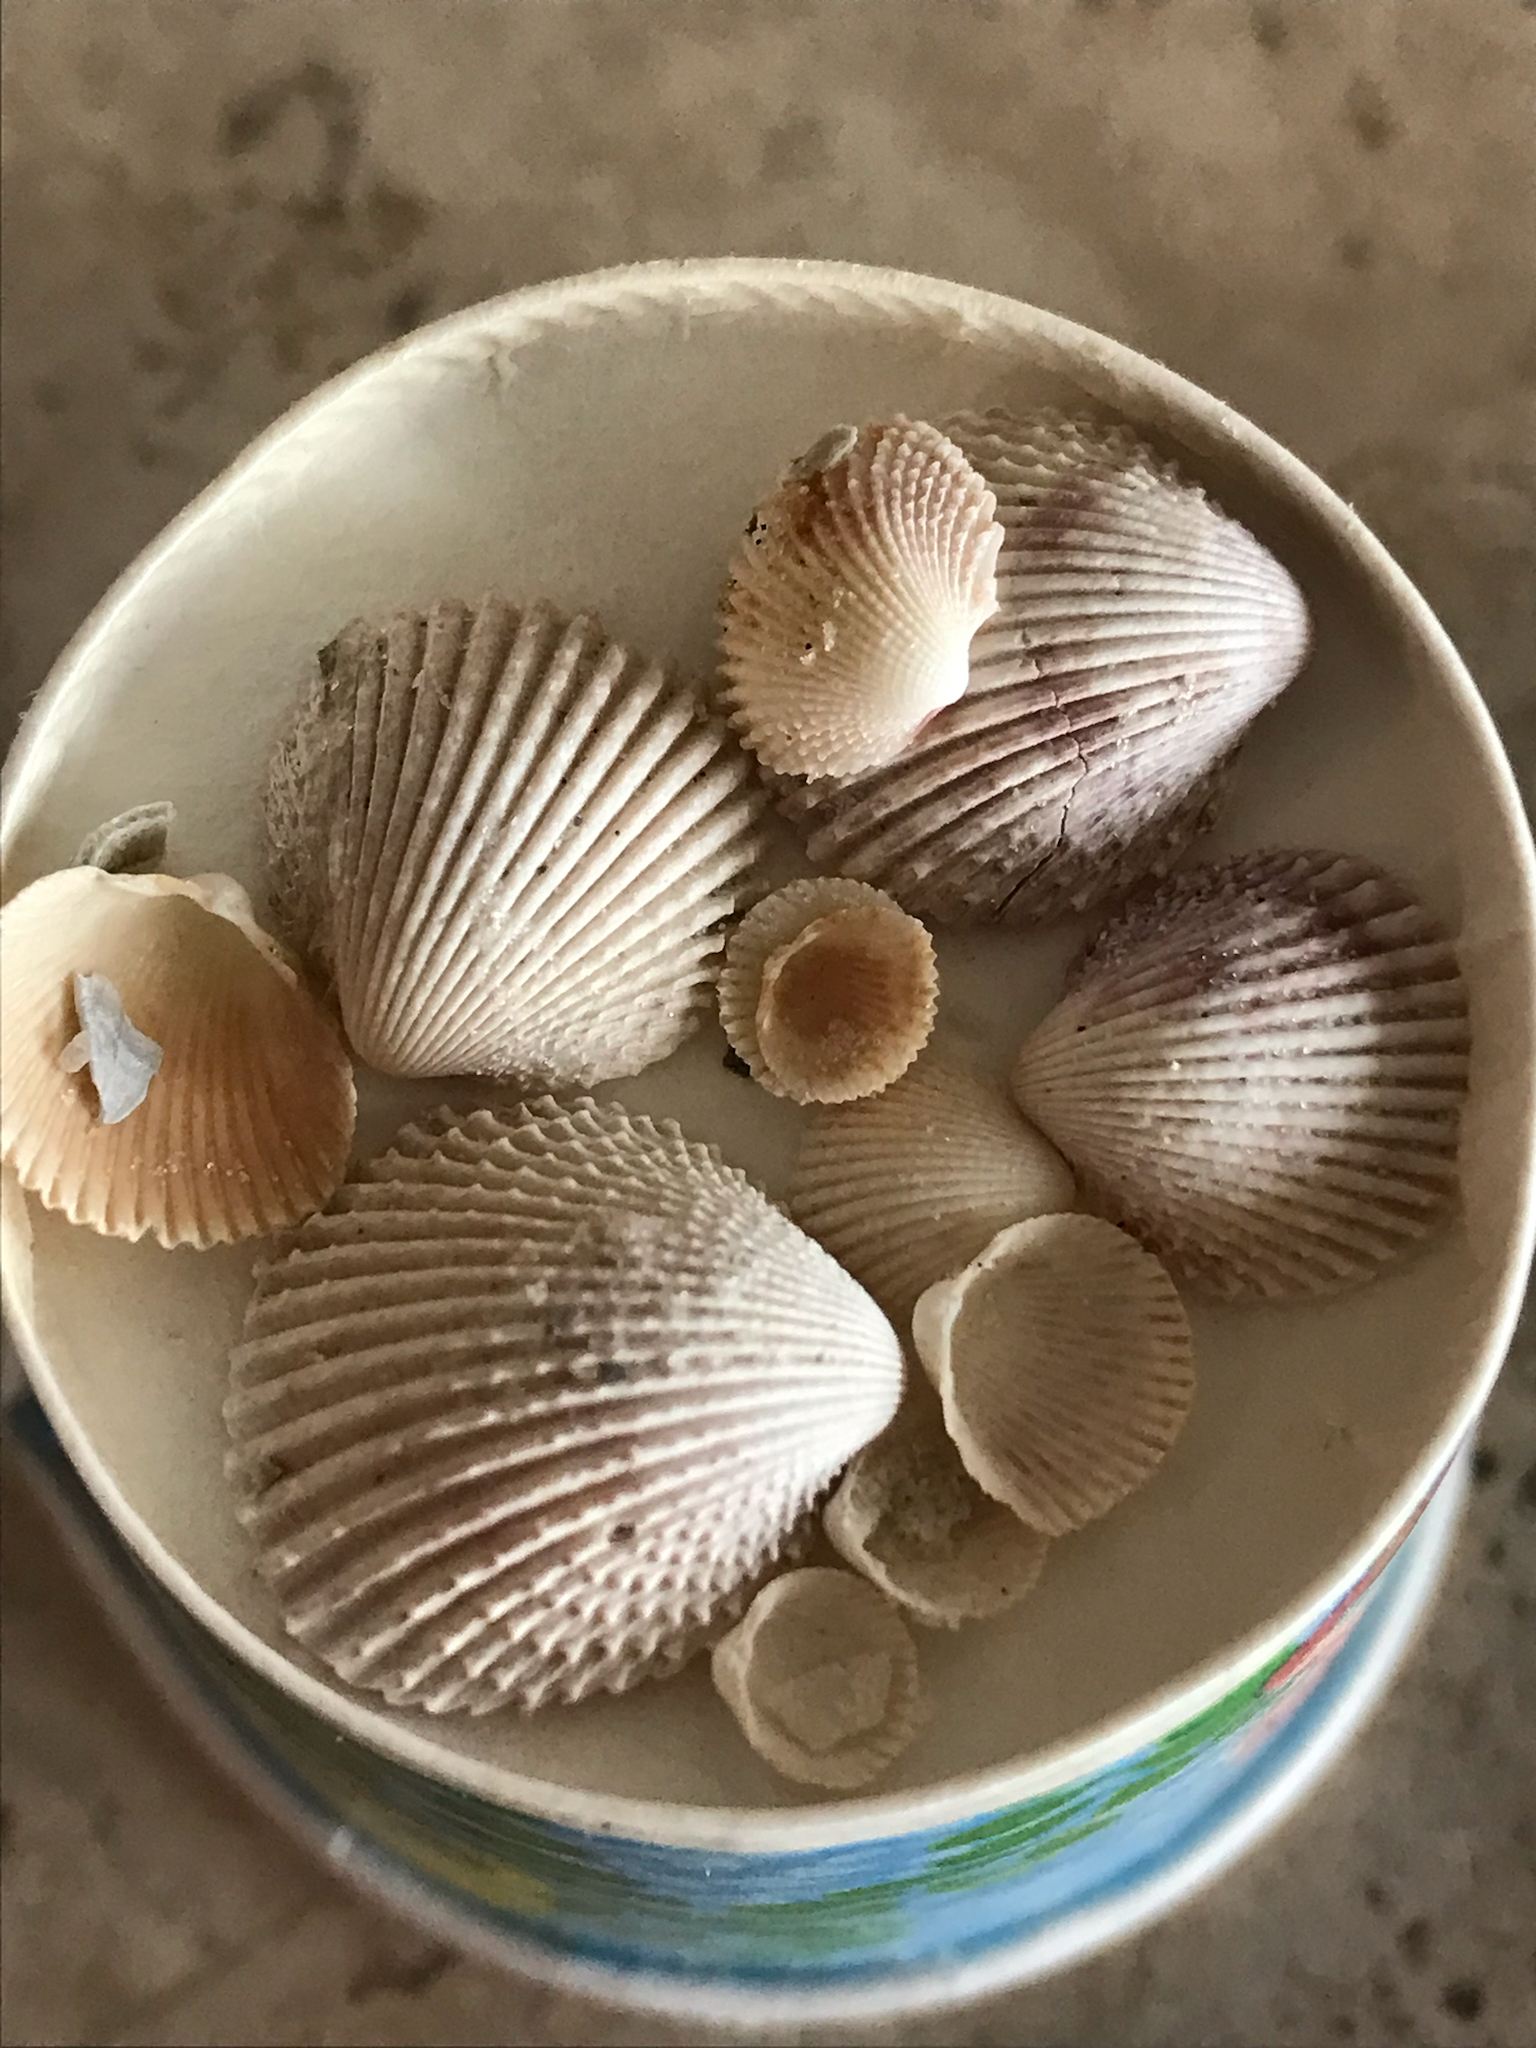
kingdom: Animalia
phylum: Mollusca
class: Bivalvia
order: Cardiida
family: Cardiidae
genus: Trachycardium
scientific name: Trachycardium egmontianum
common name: Florida pricklycockle
